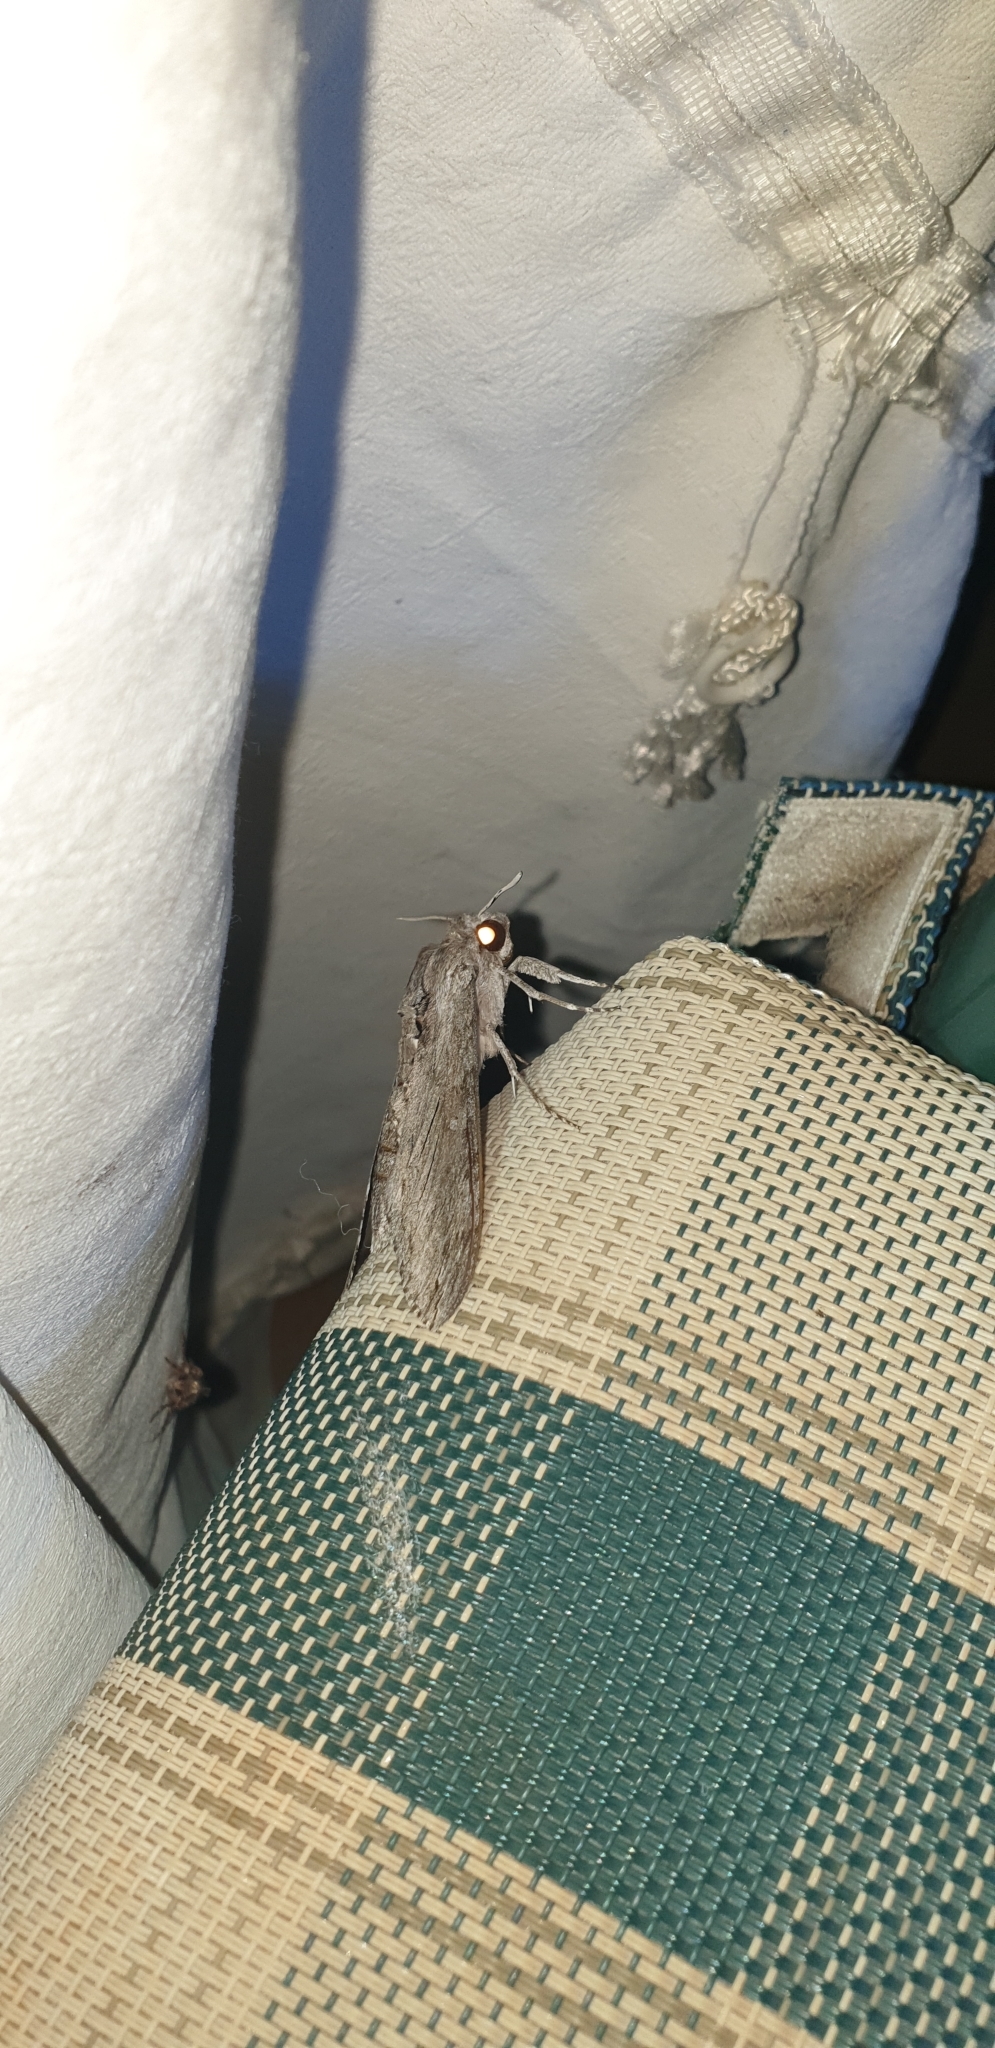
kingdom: Animalia
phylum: Arthropoda
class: Insecta
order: Lepidoptera
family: Sphingidae
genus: Agrius
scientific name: Agrius convolvuli
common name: Convolvulus hawkmoth
